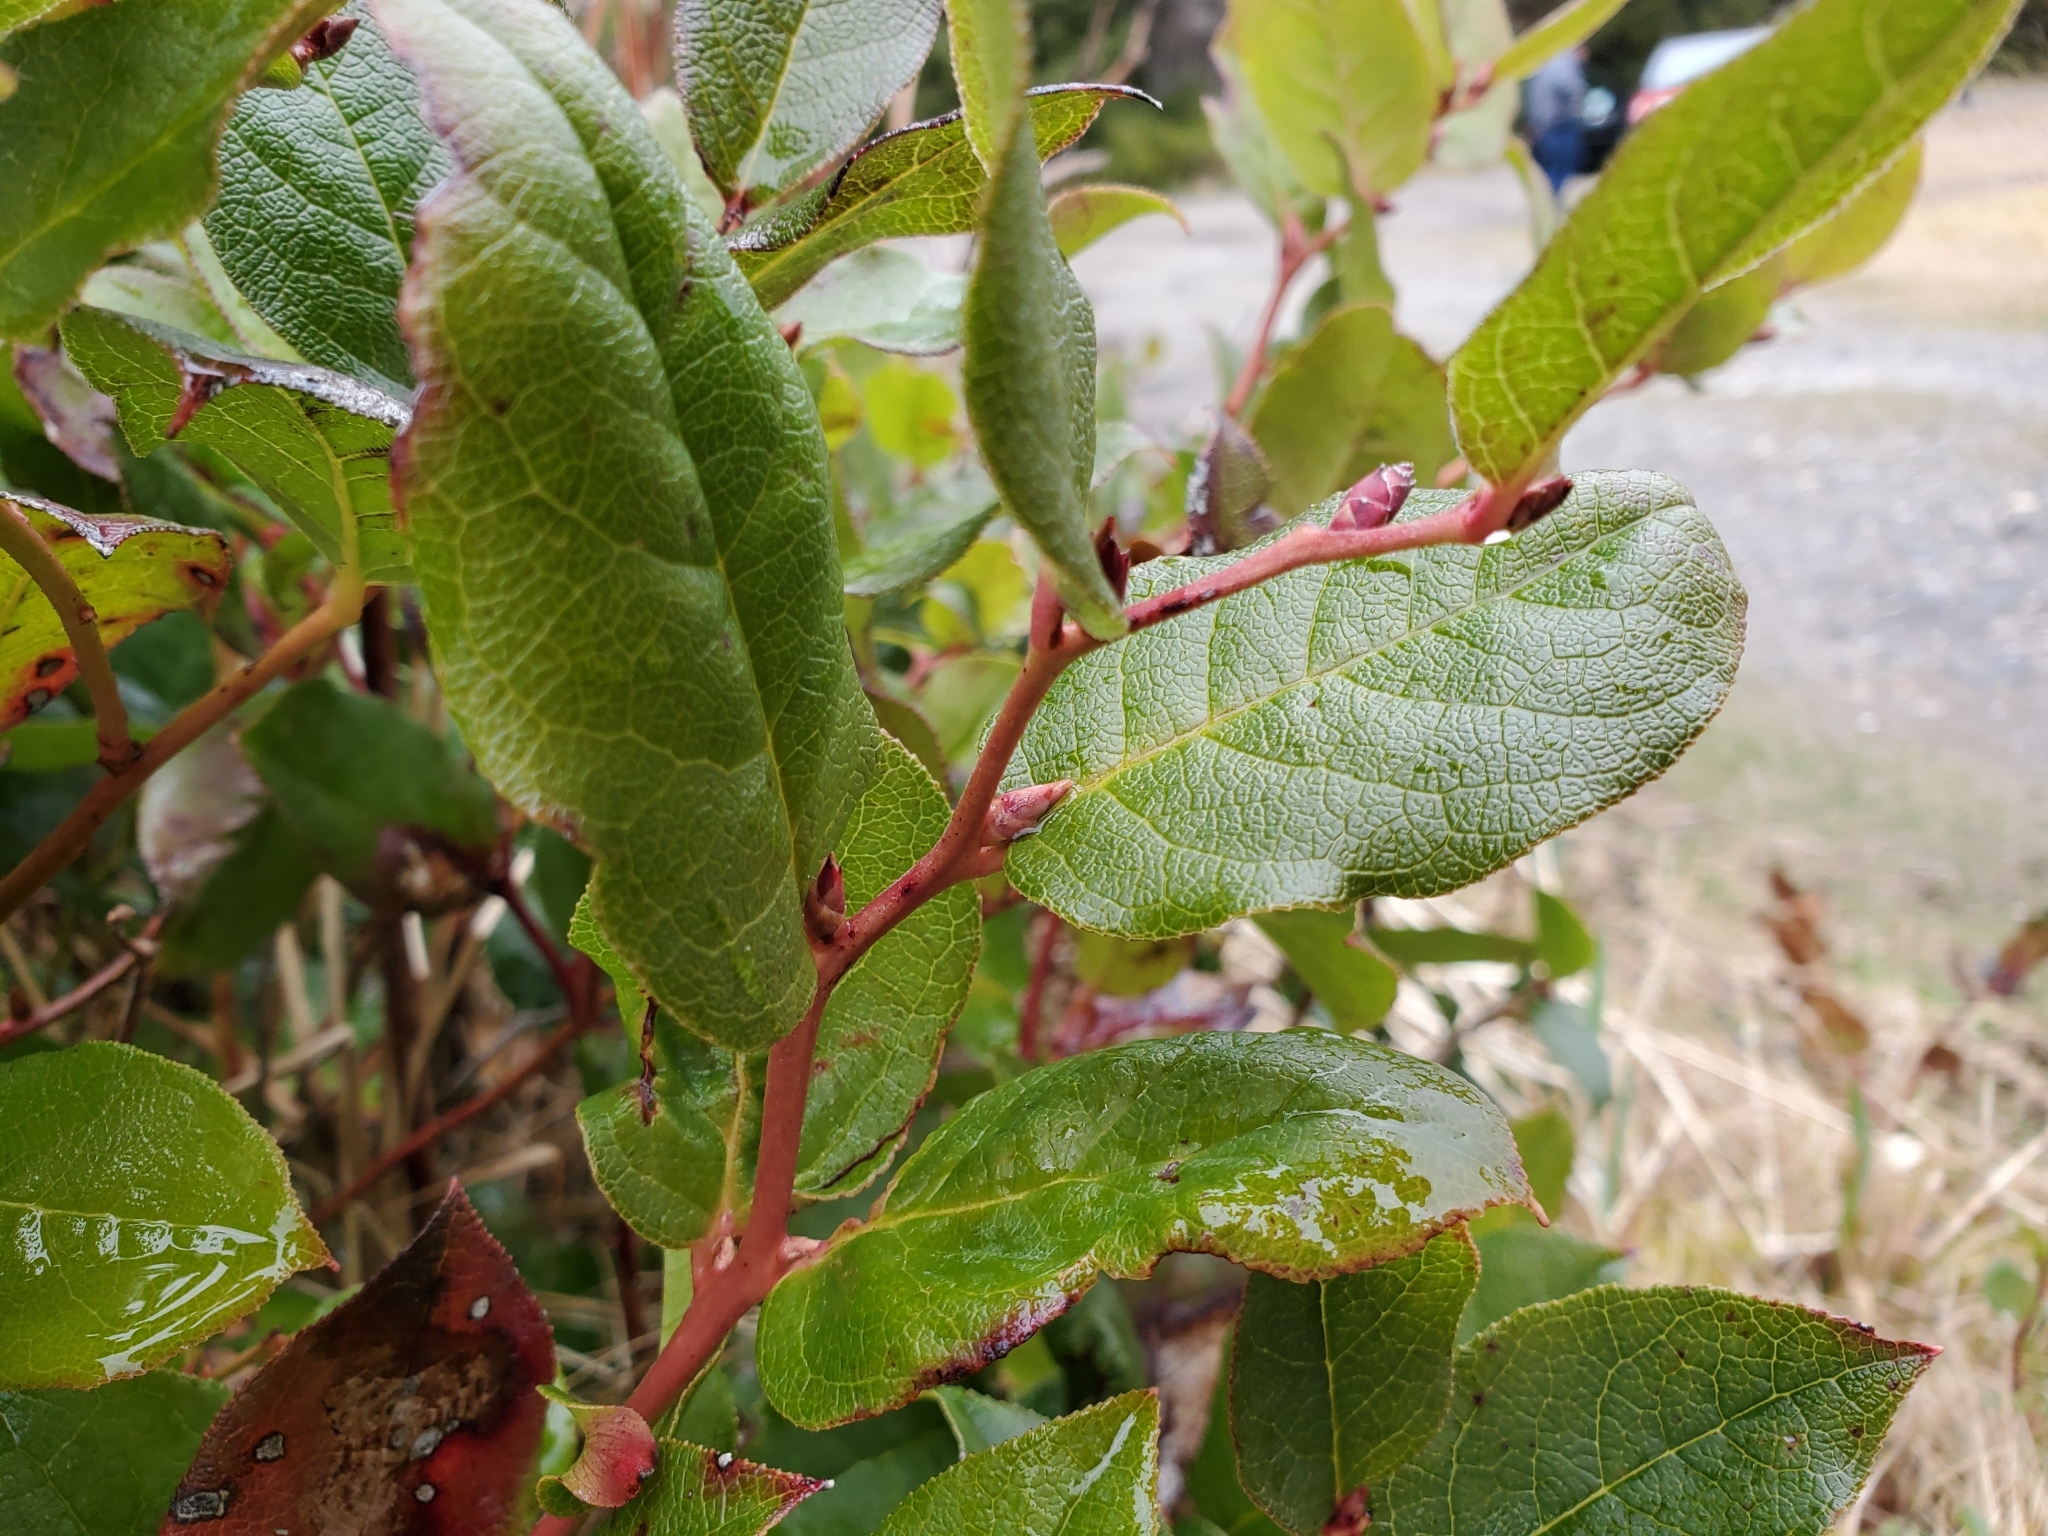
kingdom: Plantae
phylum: Tracheophyta
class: Magnoliopsida
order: Ericales
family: Ericaceae
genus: Gaultheria
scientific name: Gaultheria shallon
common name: Shallon
